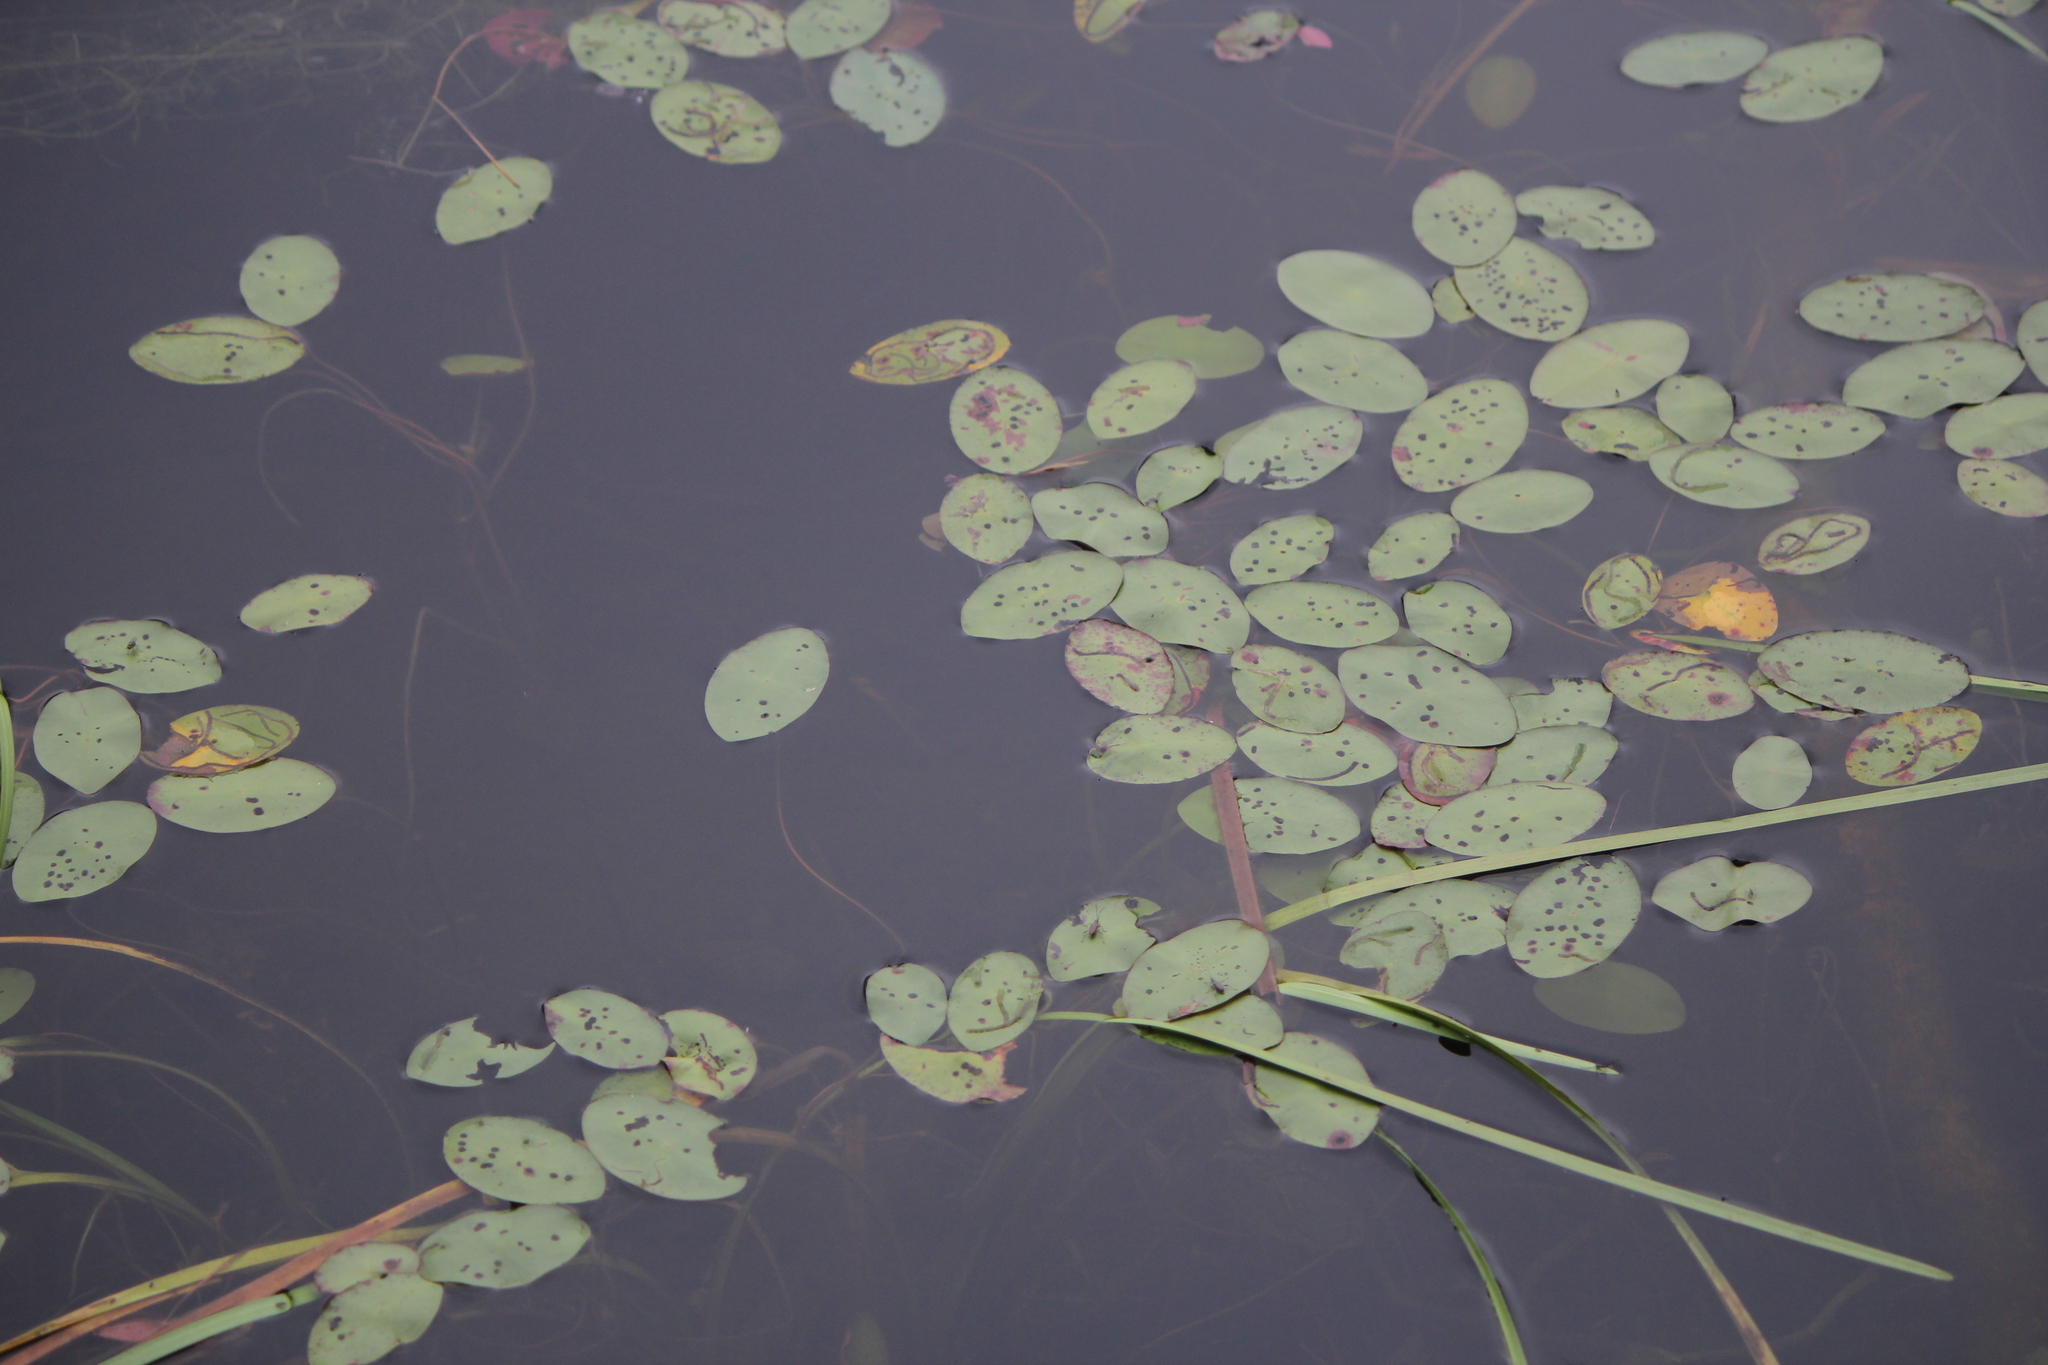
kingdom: Plantae
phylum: Tracheophyta
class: Magnoliopsida
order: Nymphaeales
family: Cabombaceae
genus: Brasenia
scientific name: Brasenia schreberi
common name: Water-shield
